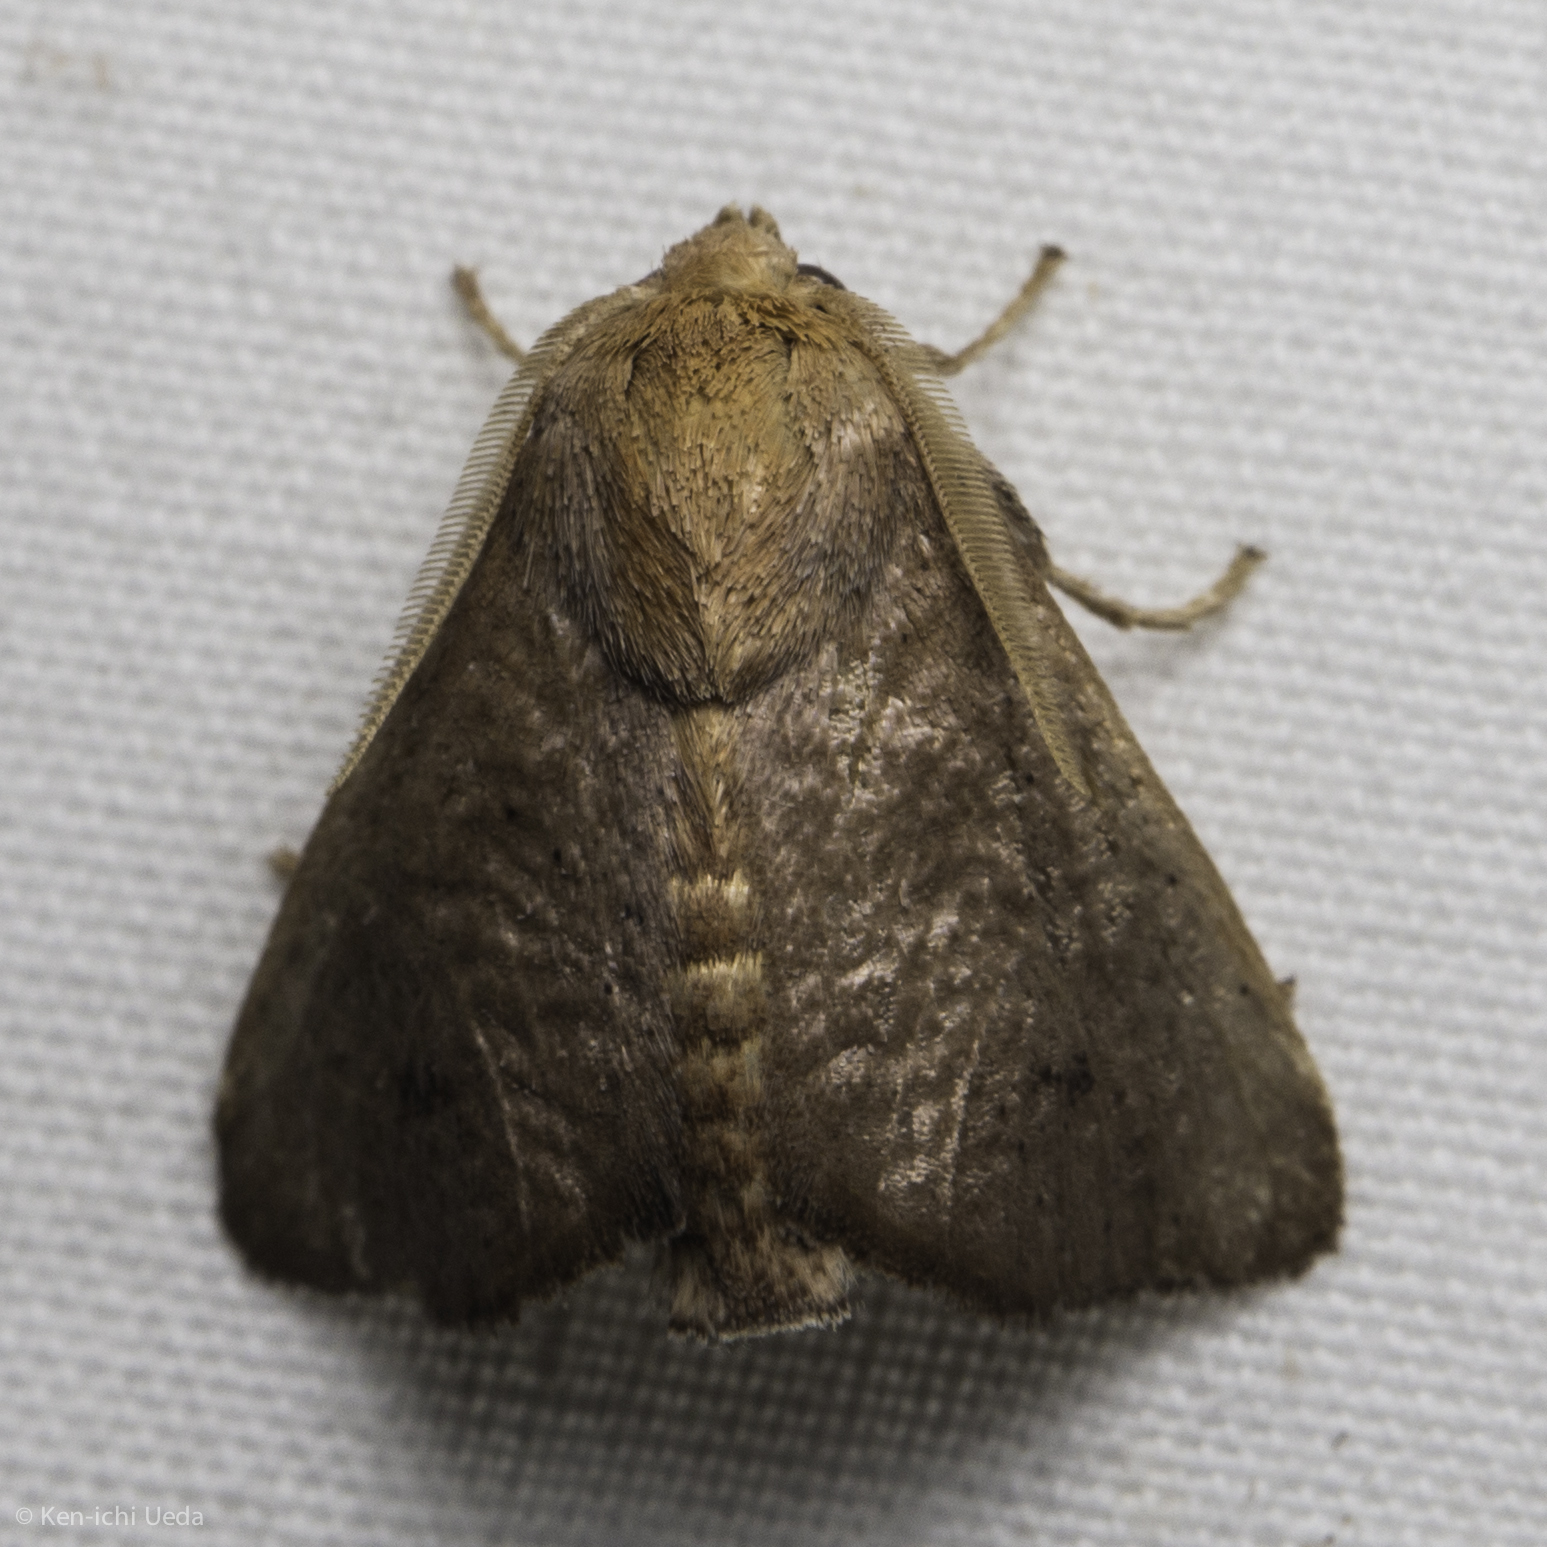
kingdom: Animalia
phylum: Arthropoda
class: Insecta
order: Lepidoptera
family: Limacodidae
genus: Natada
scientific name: Natada lucens
